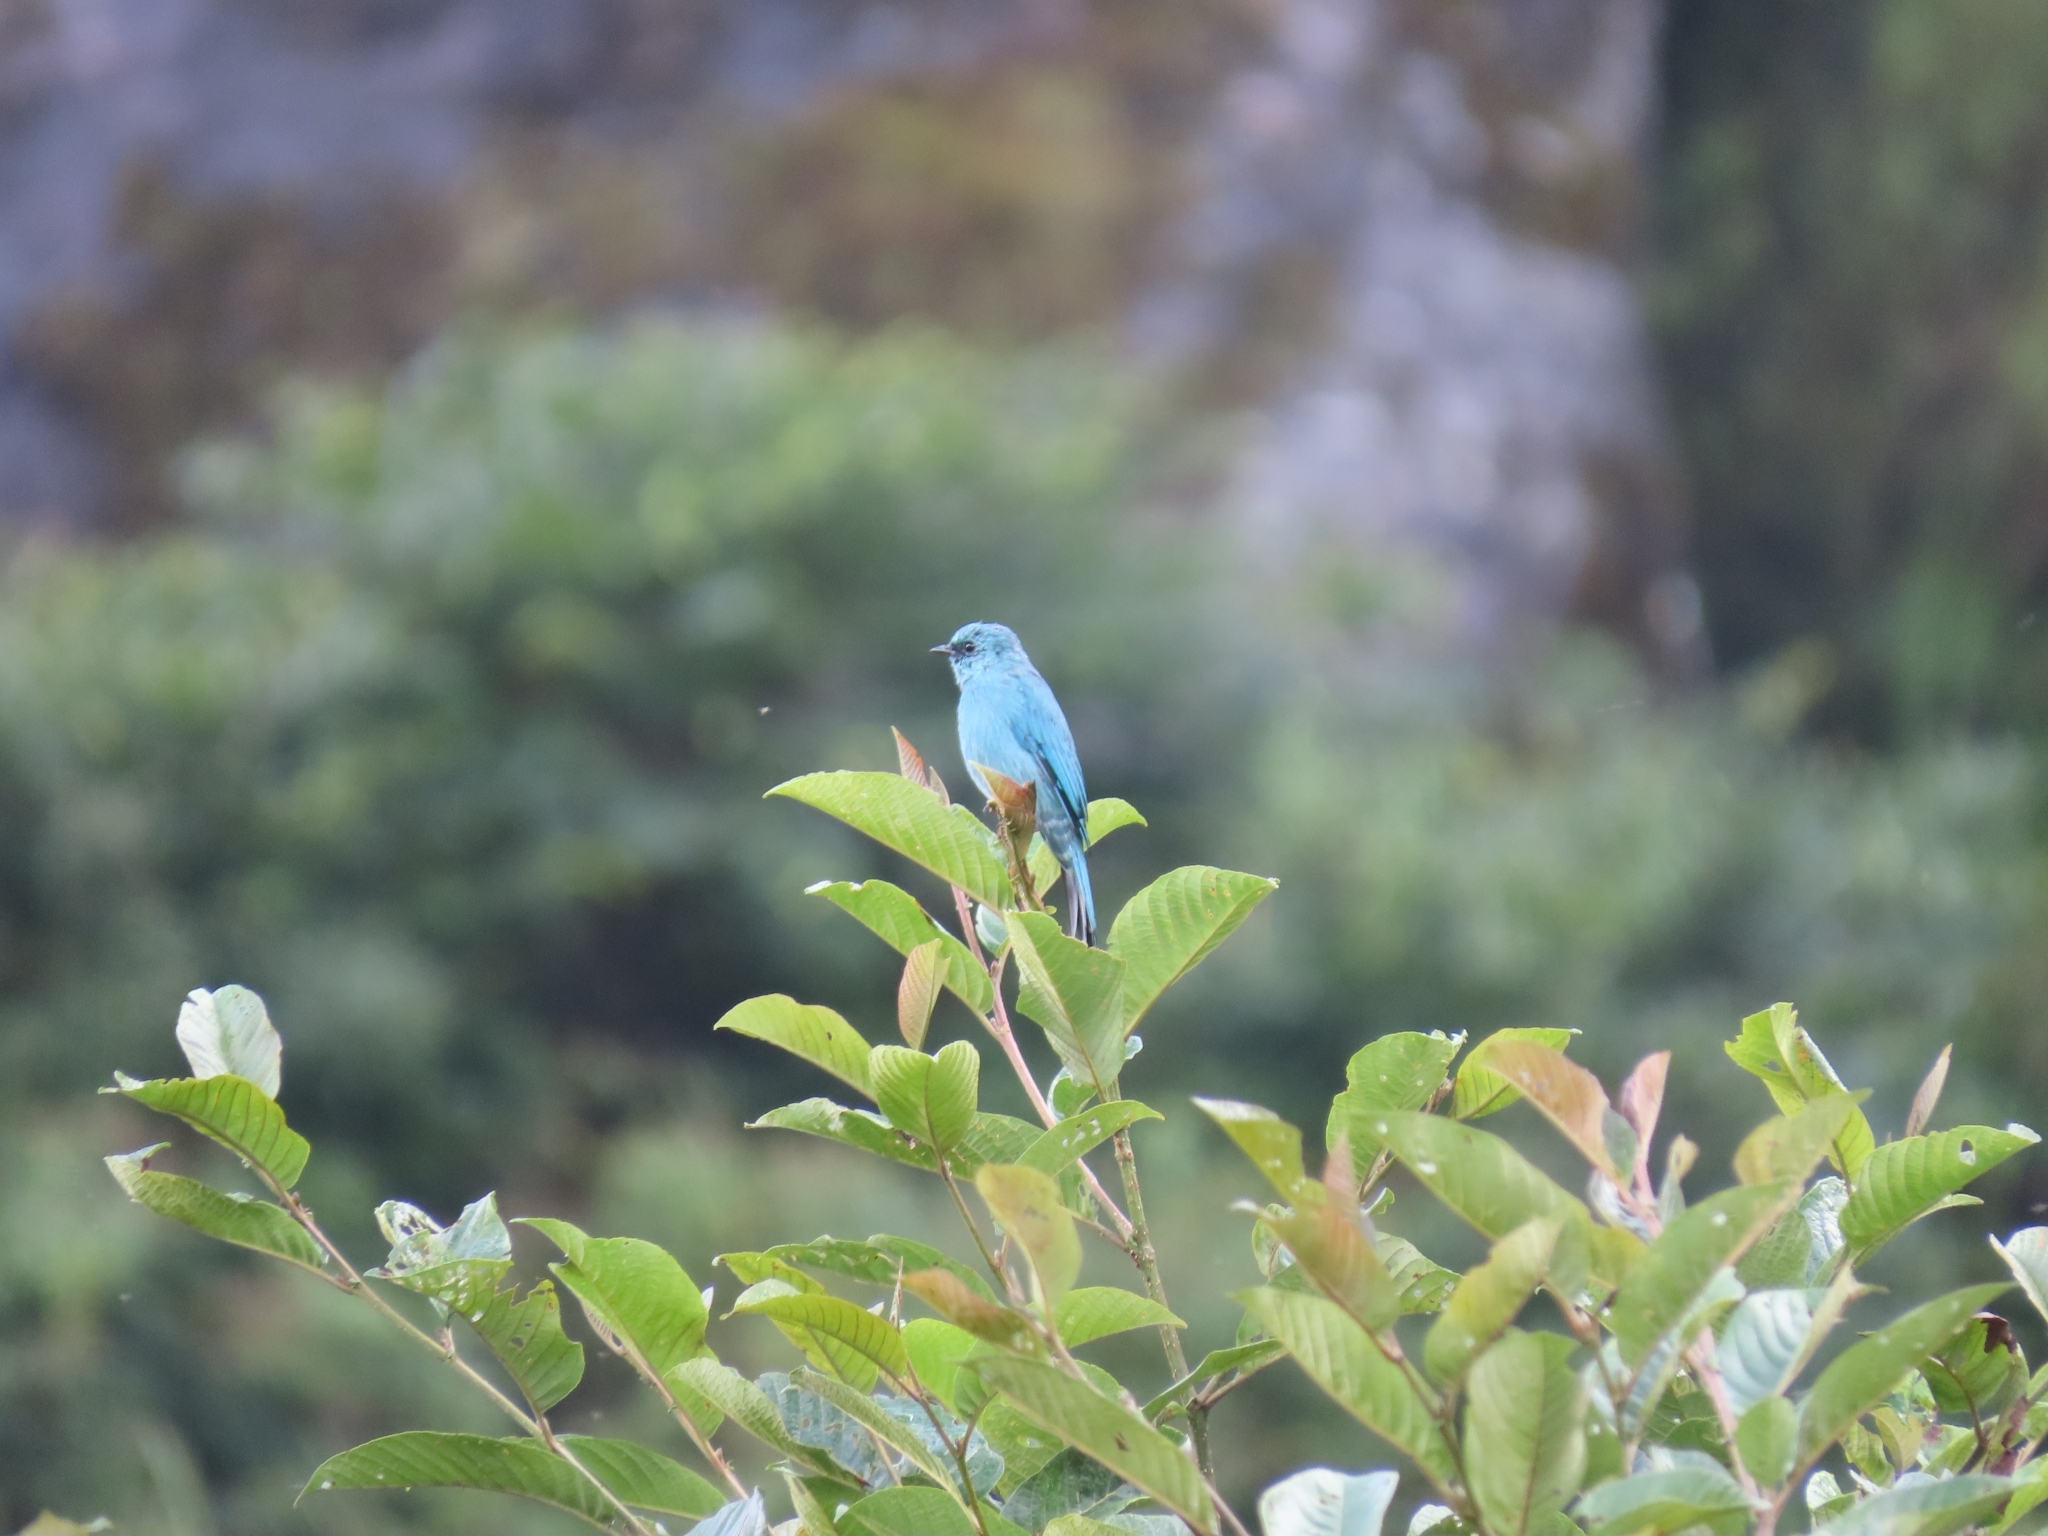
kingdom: Animalia
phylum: Chordata
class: Aves
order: Passeriformes
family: Muscicapidae
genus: Eumyias
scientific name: Eumyias thalassinus
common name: Verditer flycatcher
